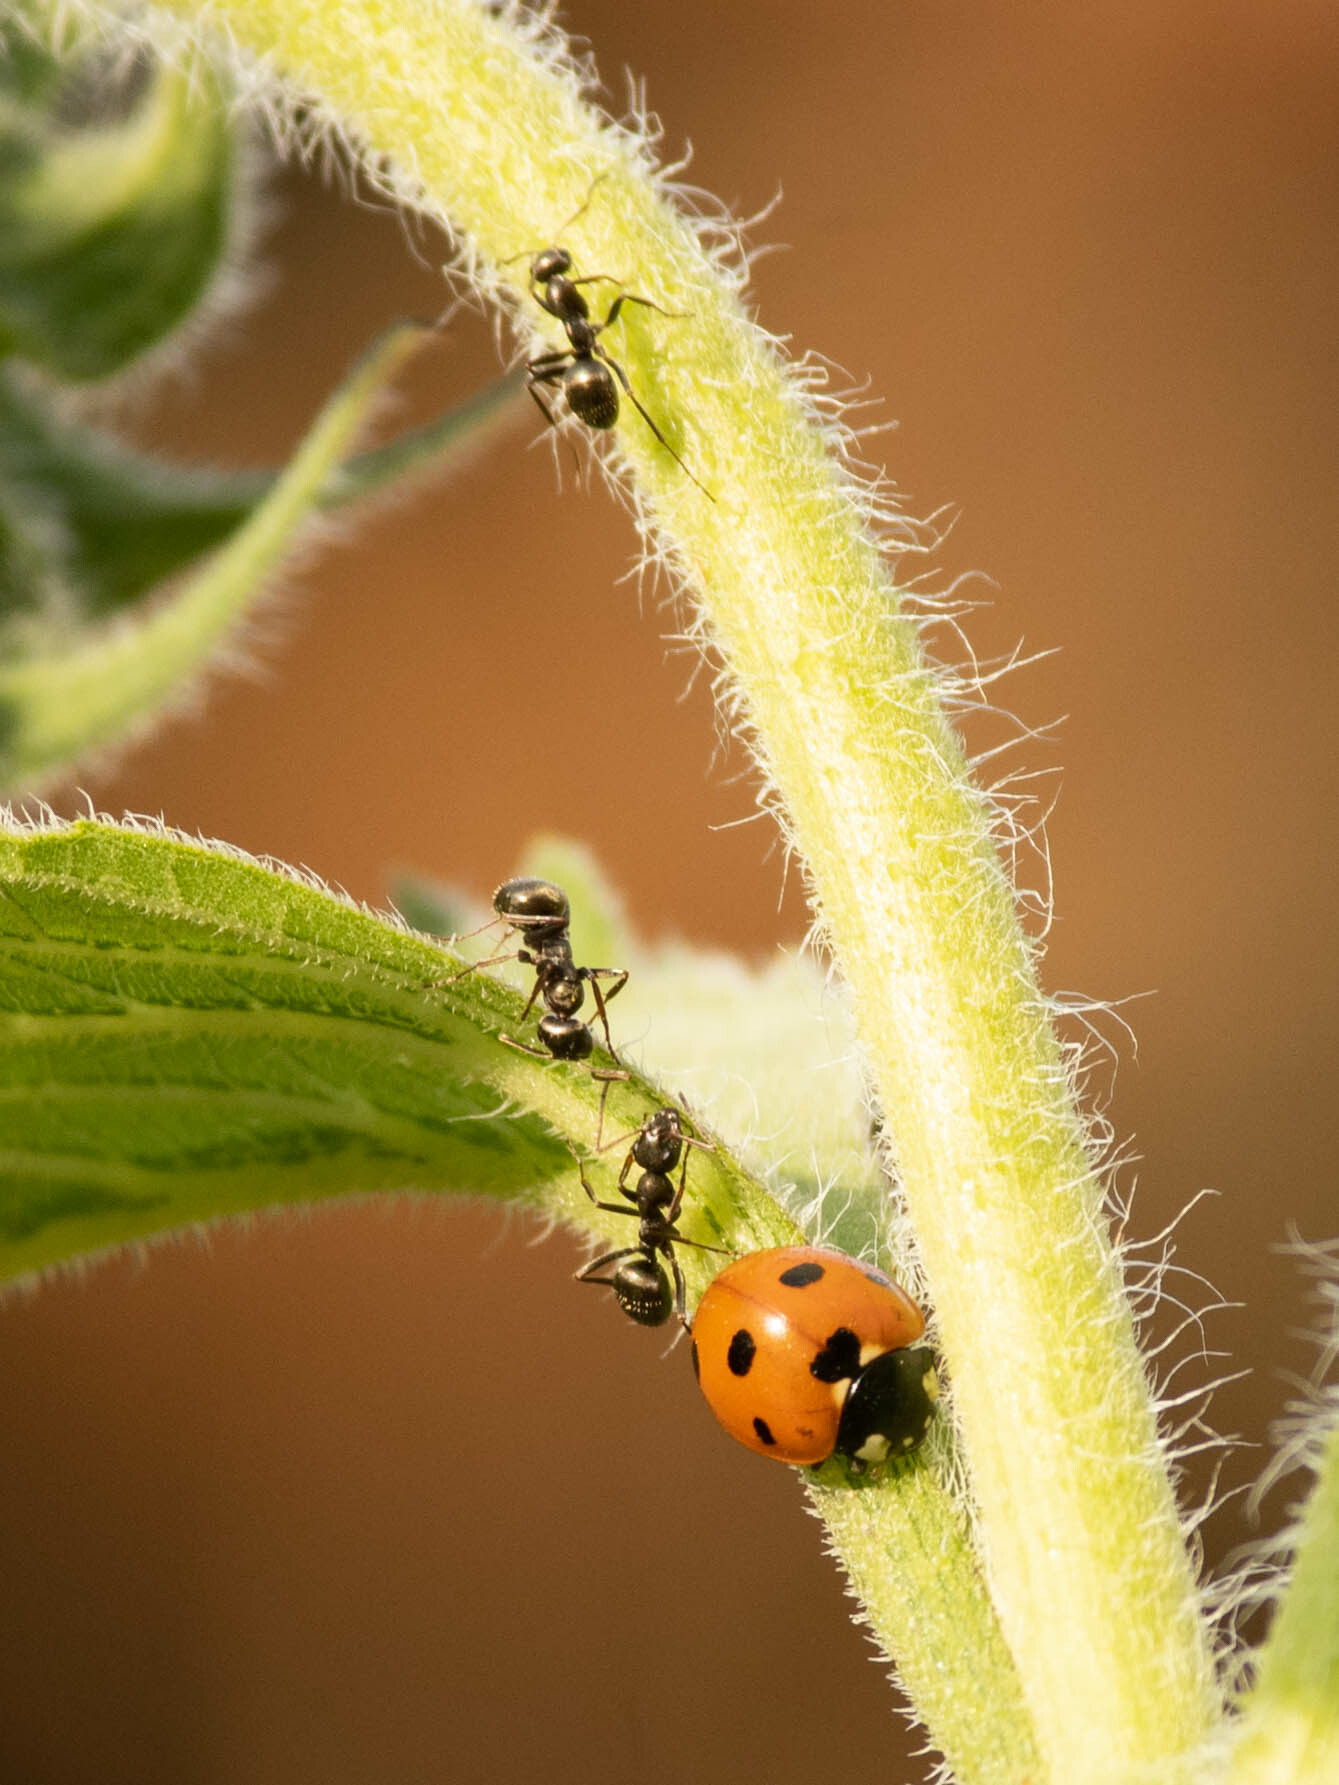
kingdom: Animalia
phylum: Arthropoda
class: Insecta
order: Coleoptera
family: Coccinellidae
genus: Coccinella
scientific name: Coccinella septempunctata
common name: Sevenspotted lady beetle
